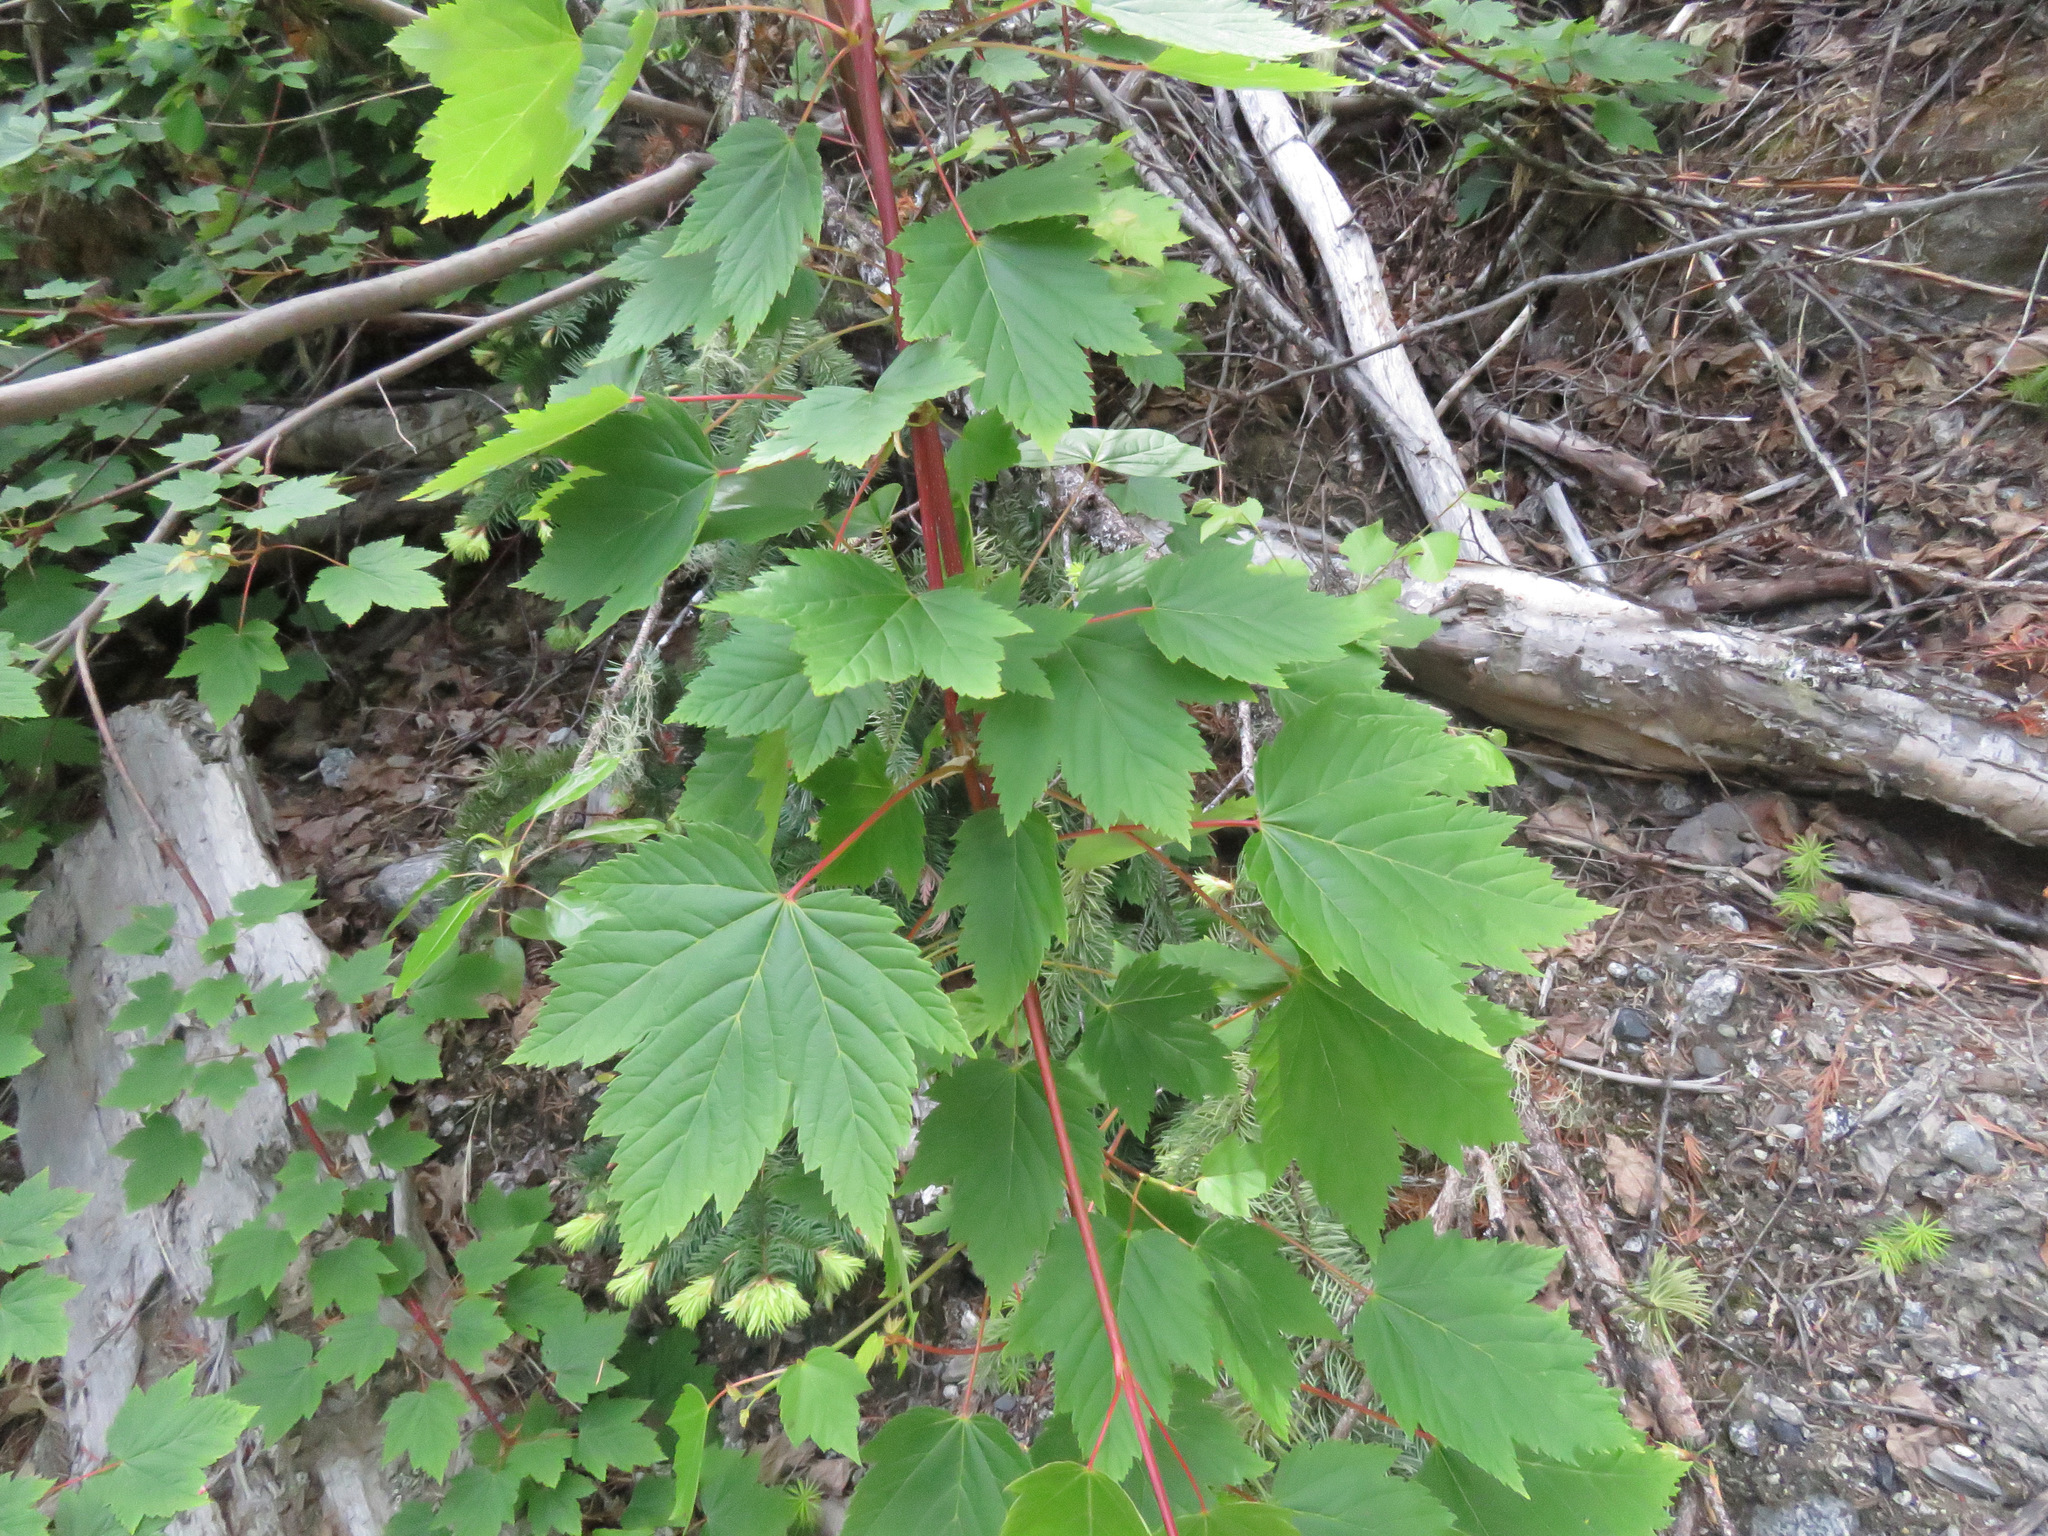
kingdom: Plantae
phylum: Tracheophyta
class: Magnoliopsida
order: Sapindales
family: Sapindaceae
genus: Acer
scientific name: Acer glabrum
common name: Rocky mountain maple
